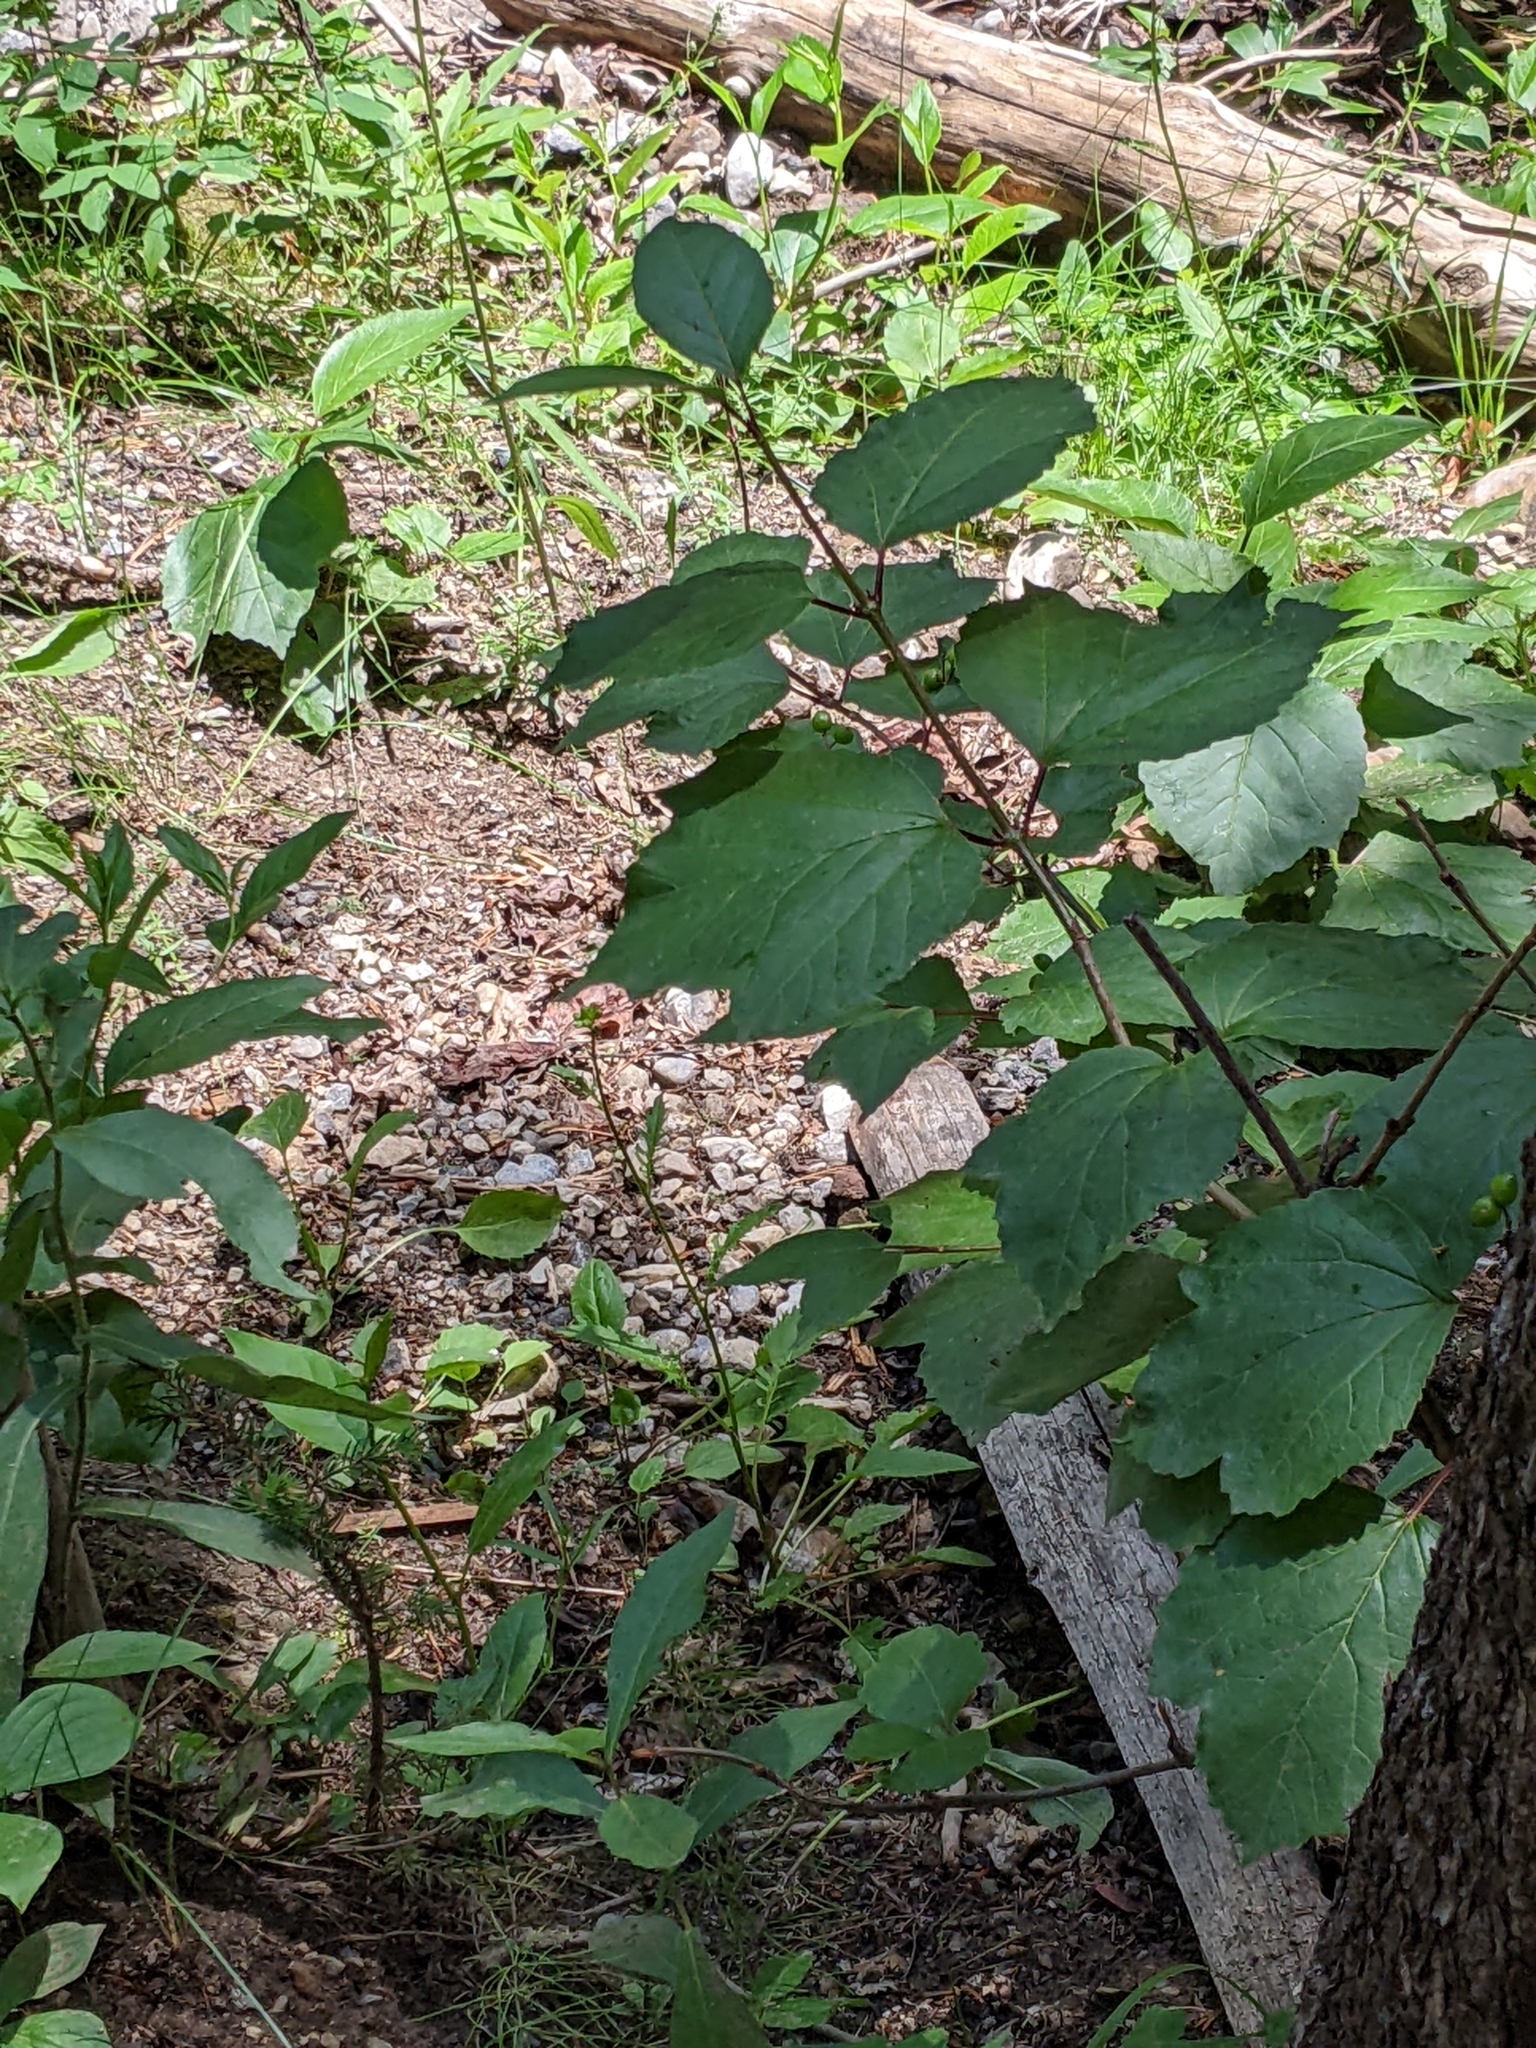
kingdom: Plantae
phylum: Tracheophyta
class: Magnoliopsida
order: Dipsacales
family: Viburnaceae
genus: Viburnum
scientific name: Viburnum edule
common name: Mooseberry
